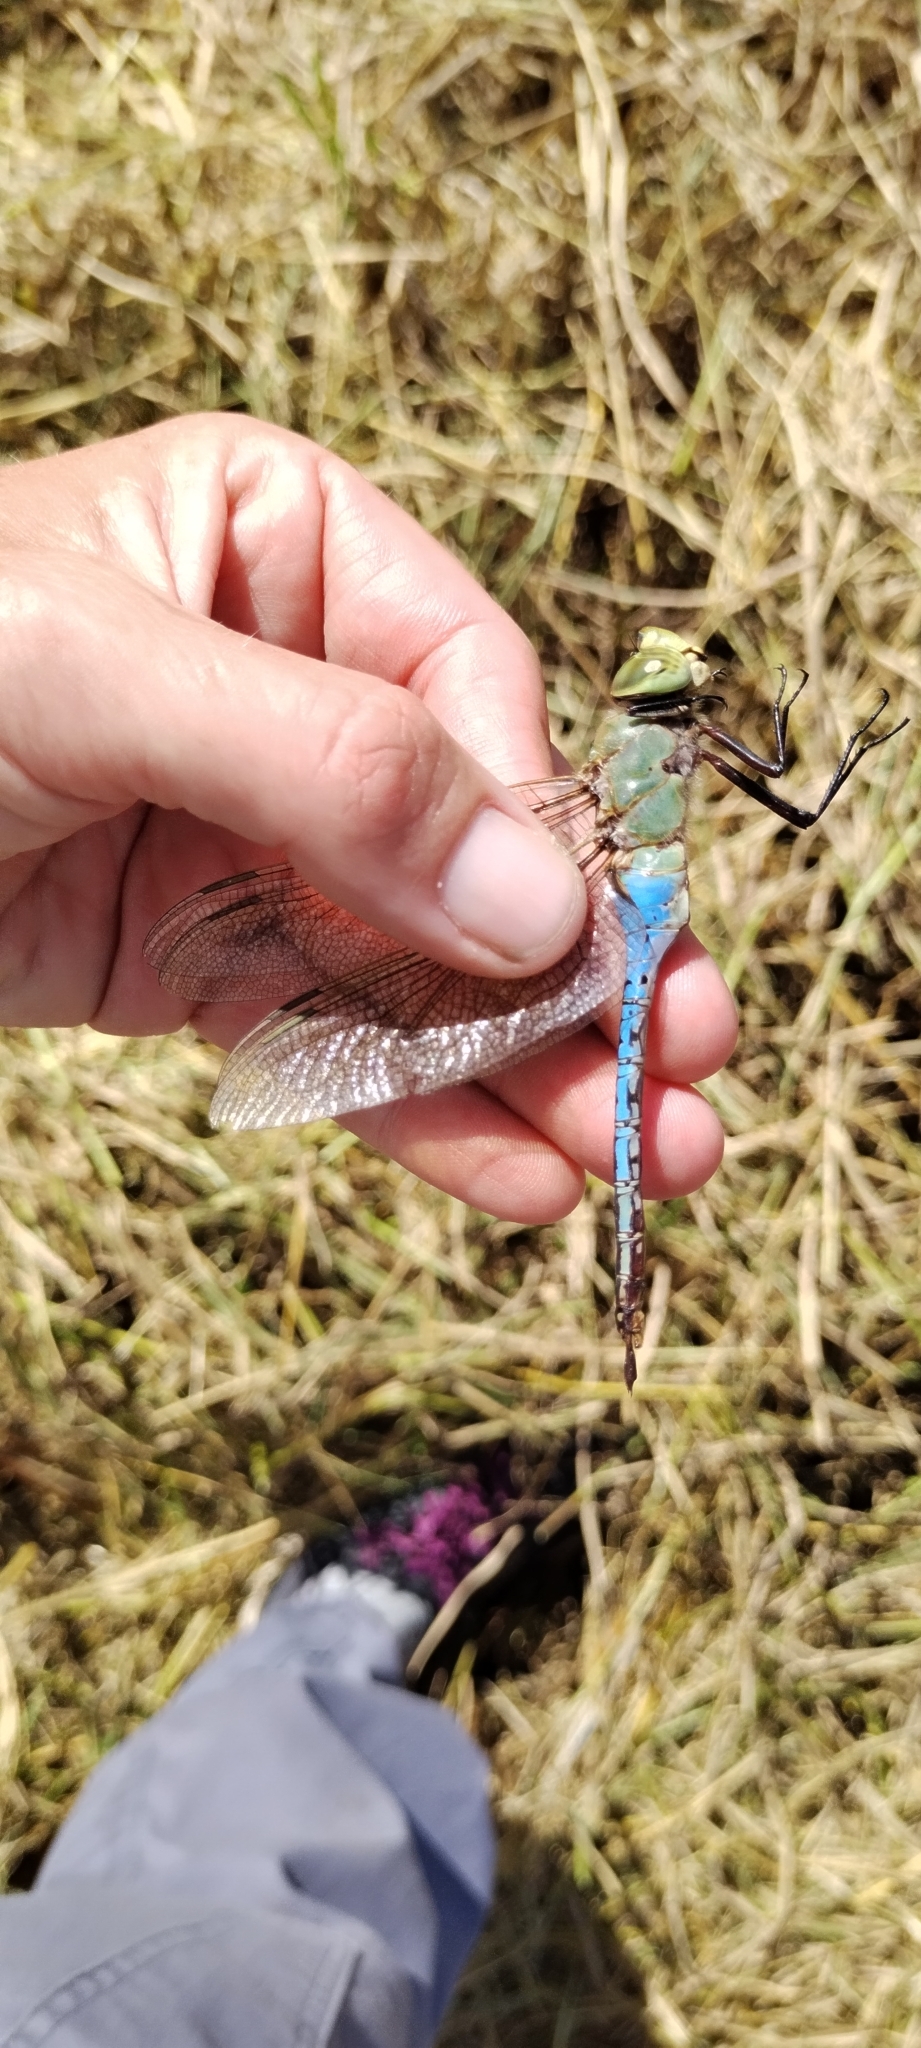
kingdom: Animalia
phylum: Arthropoda
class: Insecta
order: Odonata
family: Aeshnidae
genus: Anax
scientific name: Anax junius
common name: Common green darner
